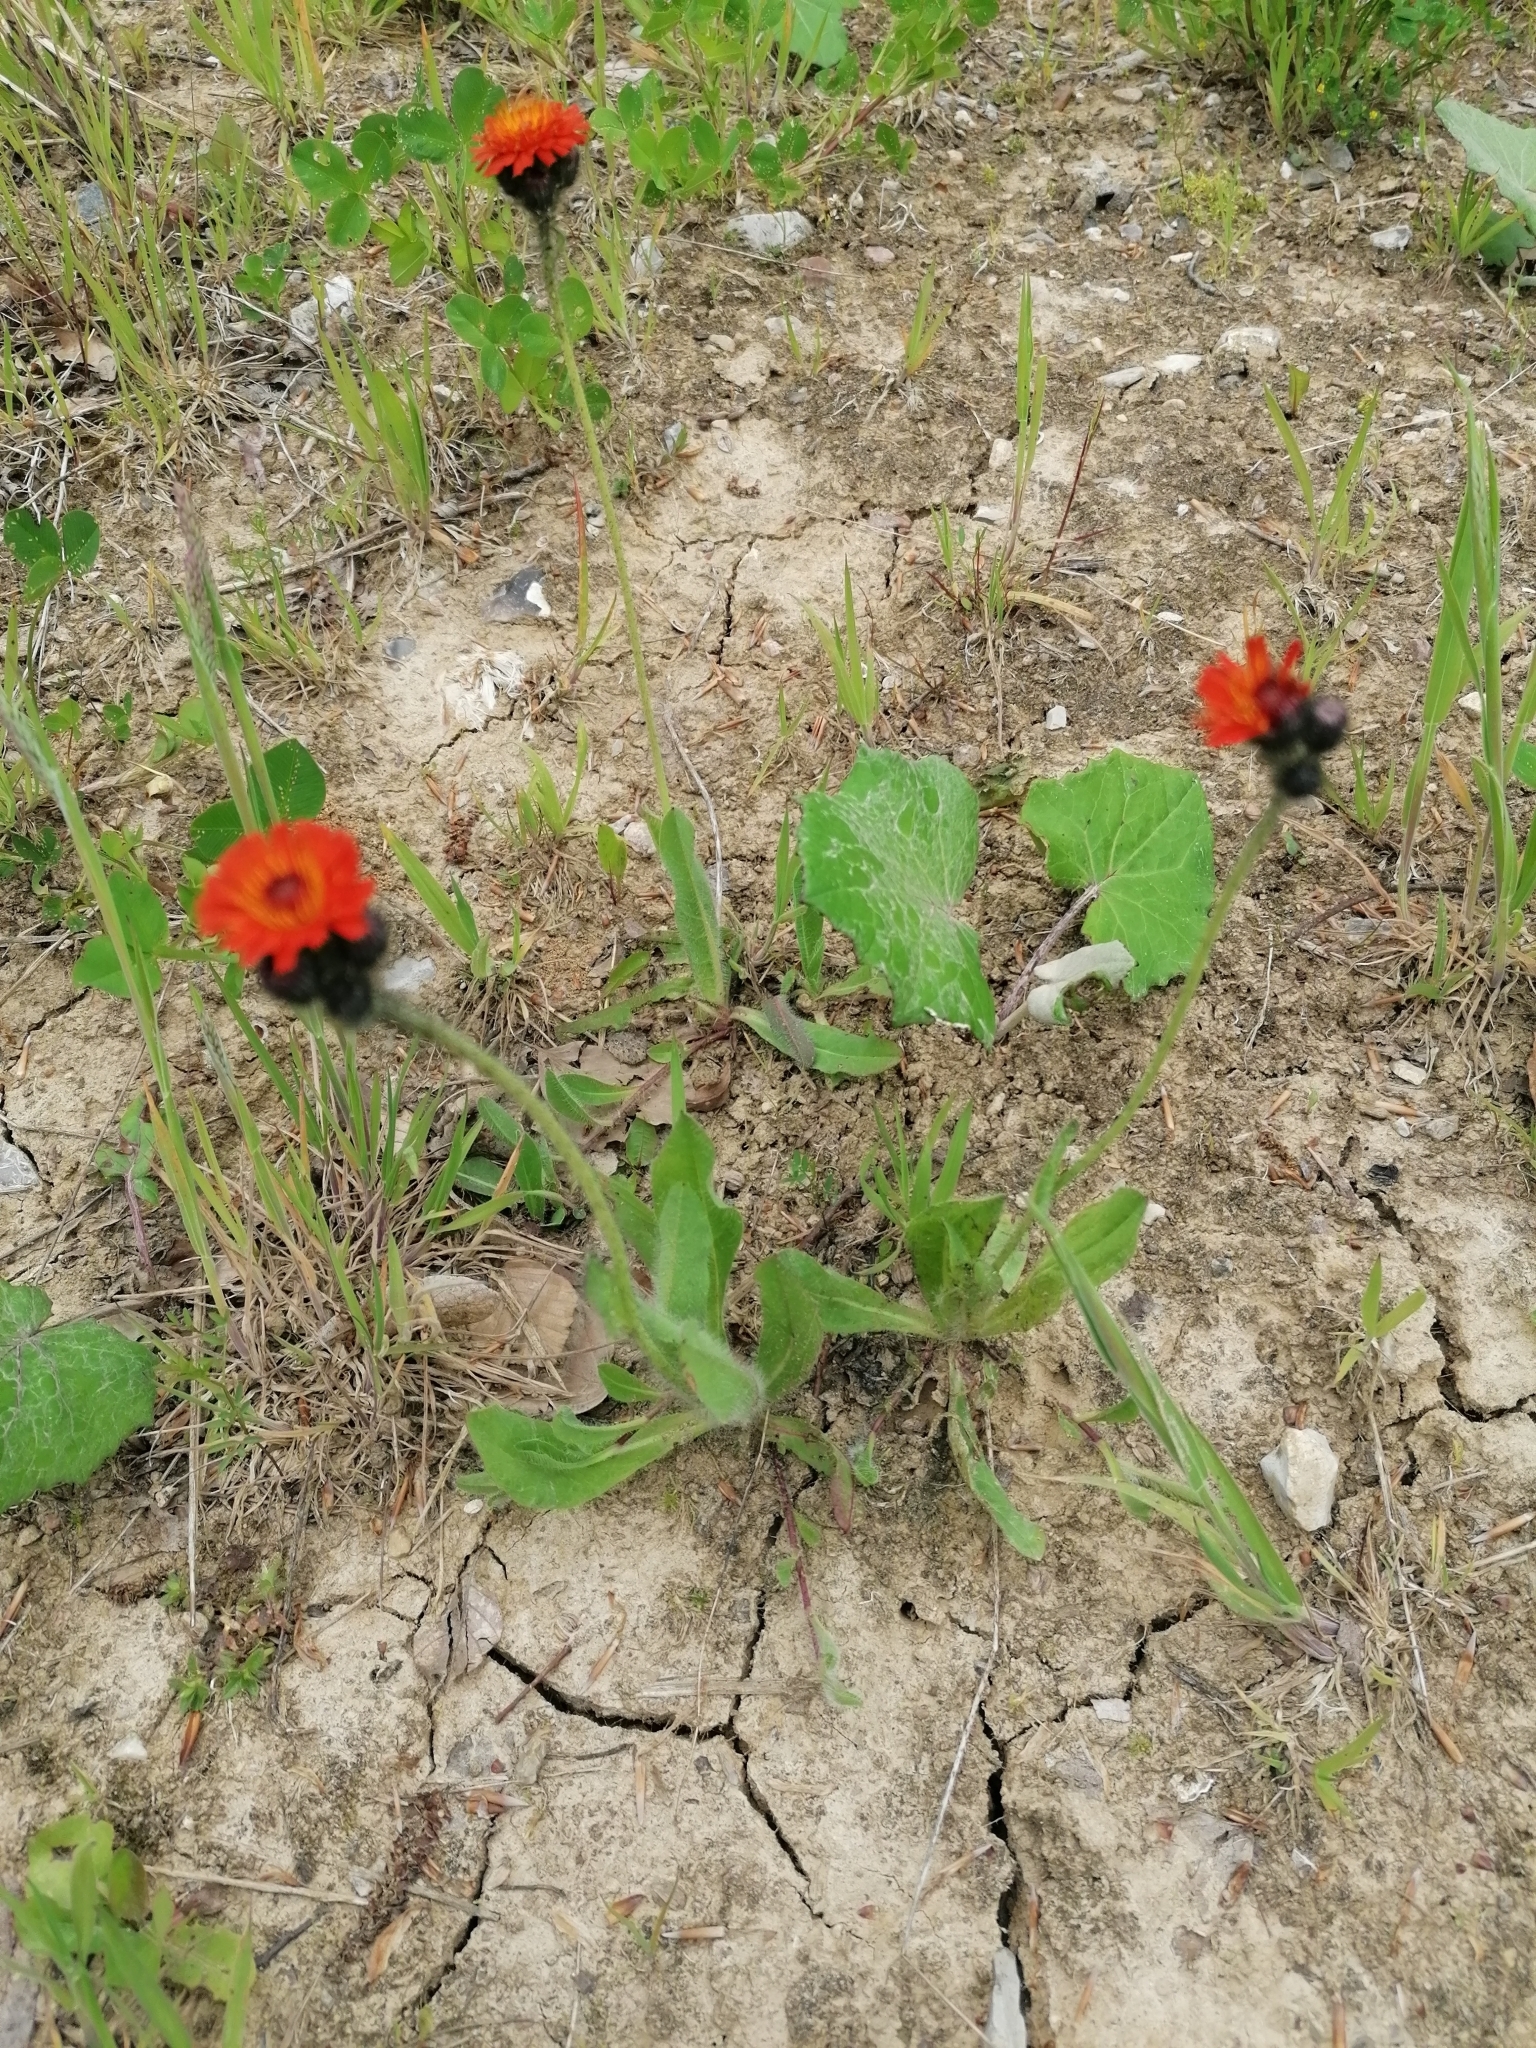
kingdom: Plantae
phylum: Tracheophyta
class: Magnoliopsida
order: Asterales
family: Asteraceae
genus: Pilosella
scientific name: Pilosella aurantiaca
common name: Fox-and-cubs
